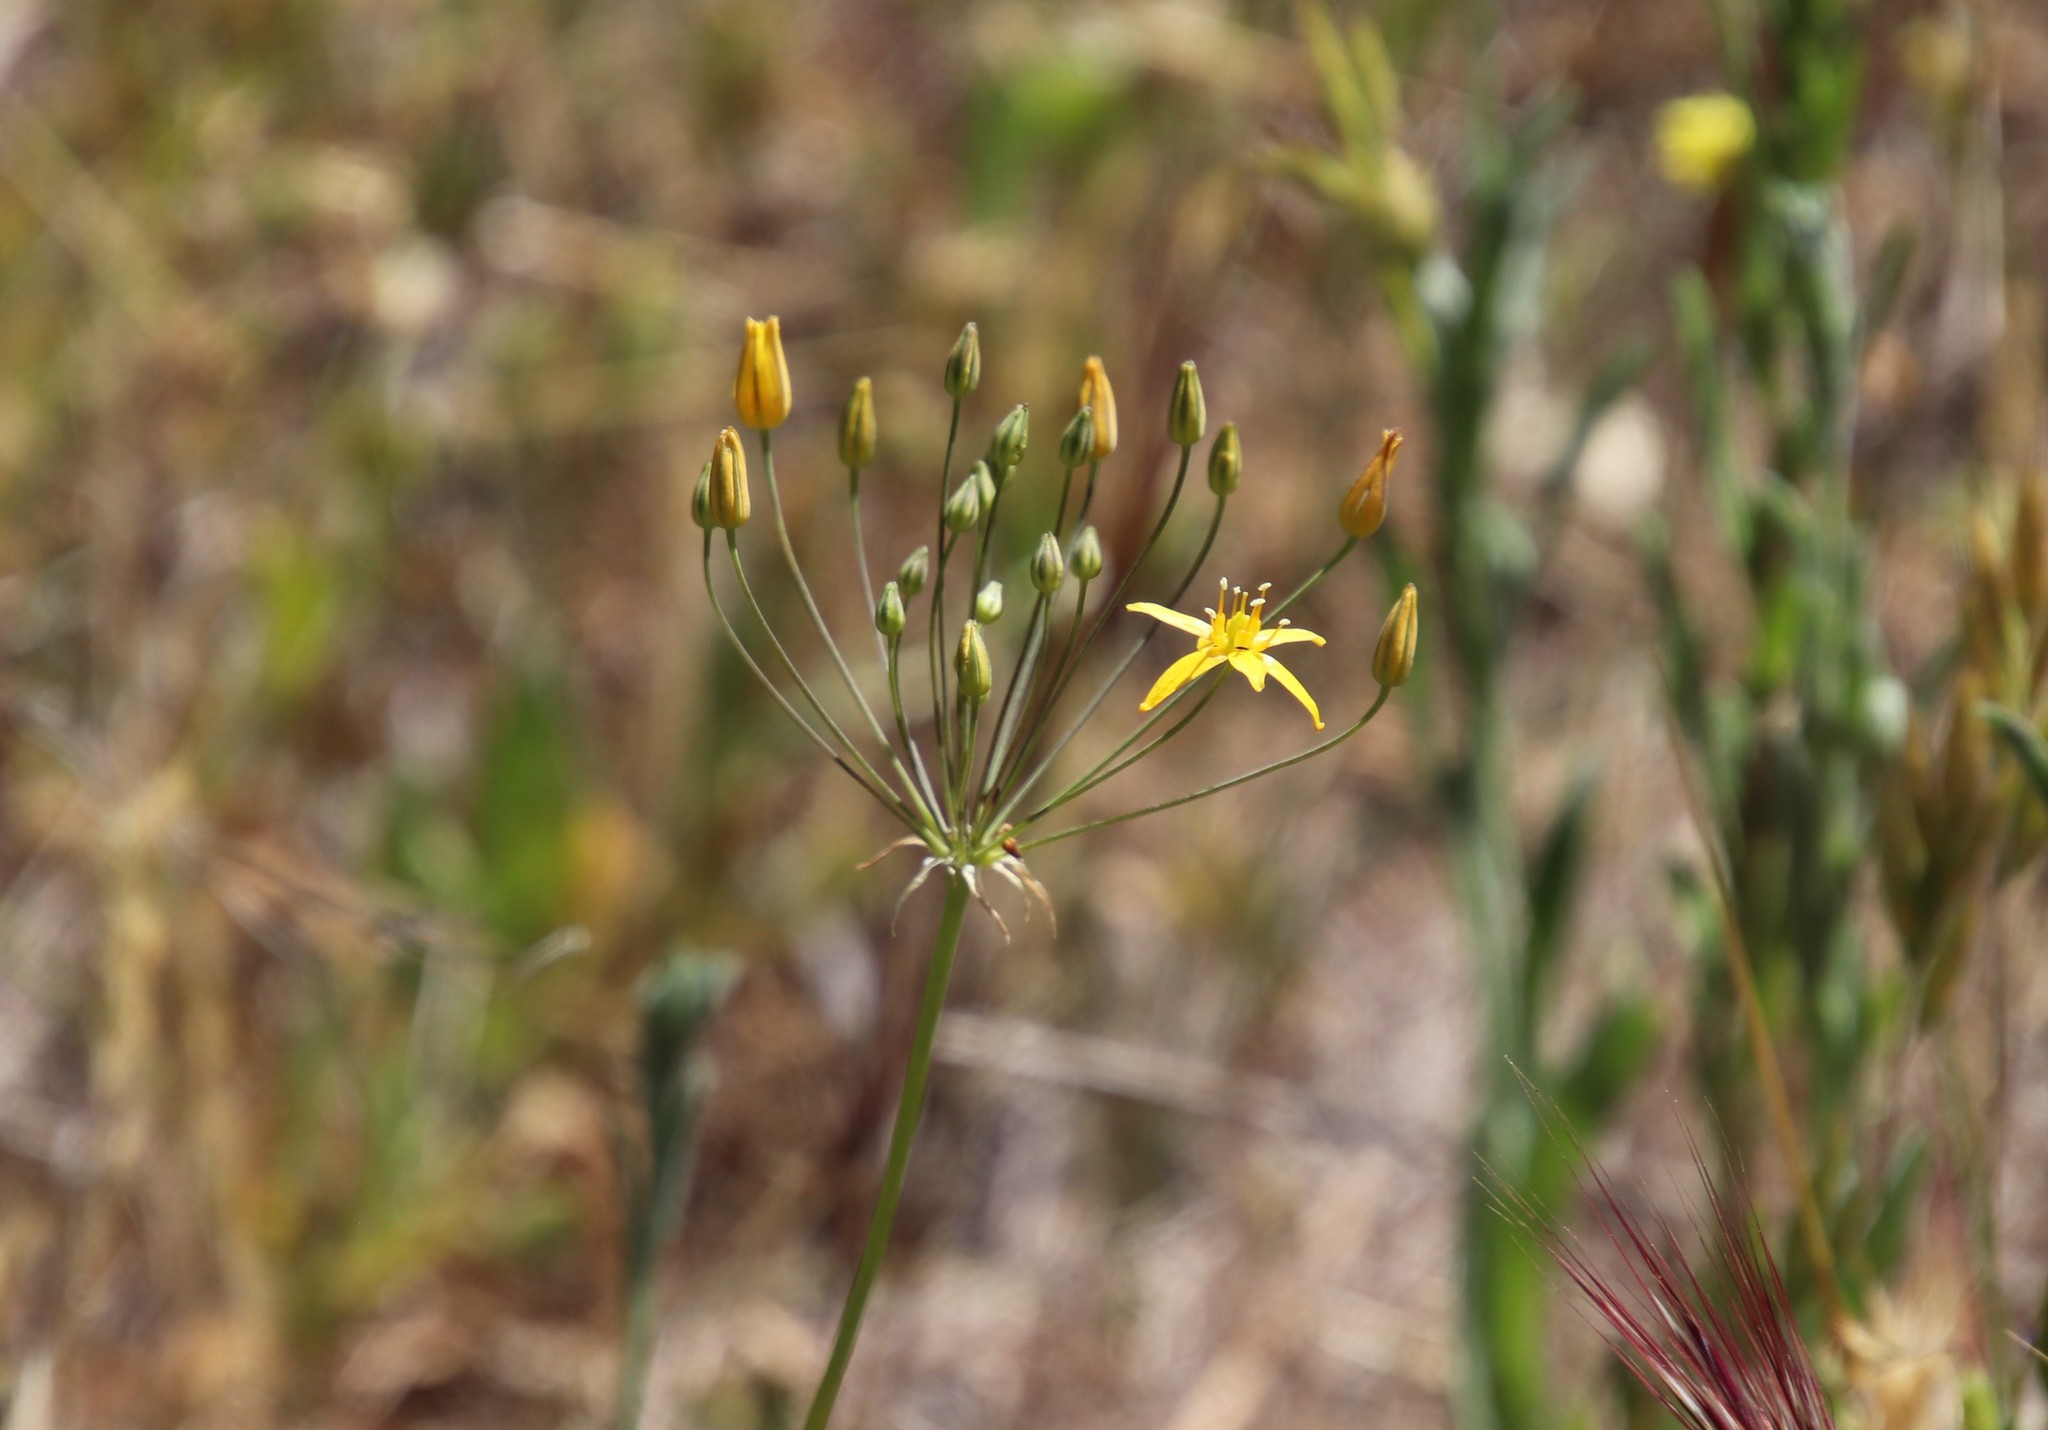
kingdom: Plantae
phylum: Tracheophyta
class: Liliopsida
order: Asparagales
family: Asparagaceae
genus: Bloomeria
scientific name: Bloomeria clevelandii
